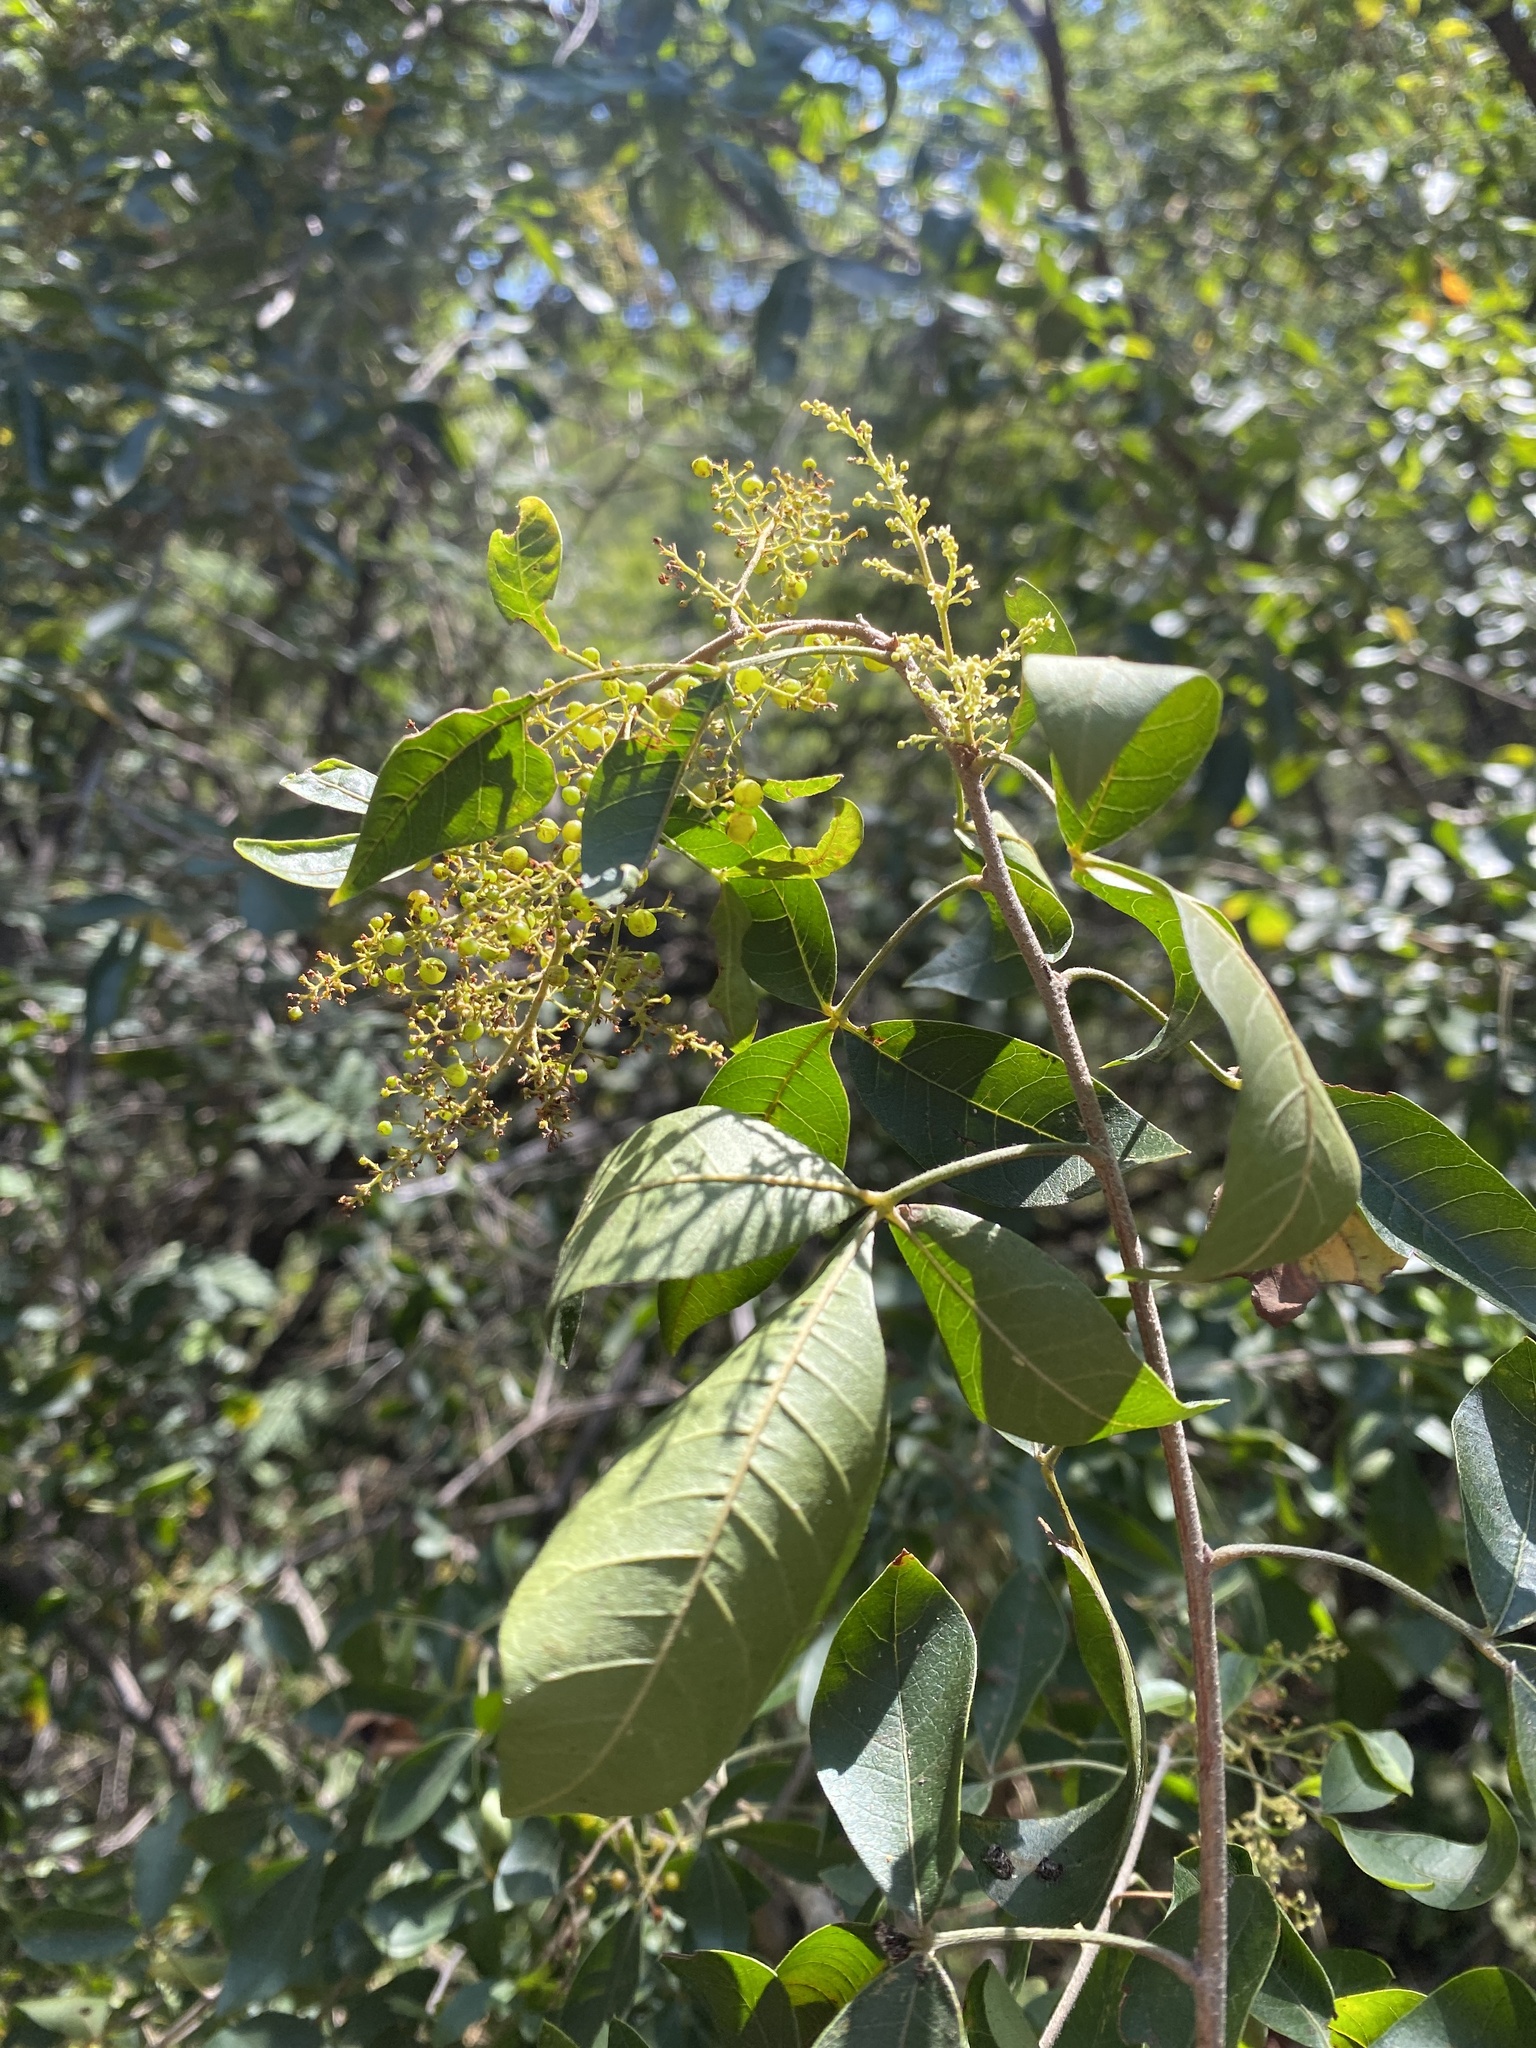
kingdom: Plantae
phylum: Tracheophyta
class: Magnoliopsida
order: Sapindales
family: Anacardiaceae
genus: Searsia
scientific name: Searsia pyroides
